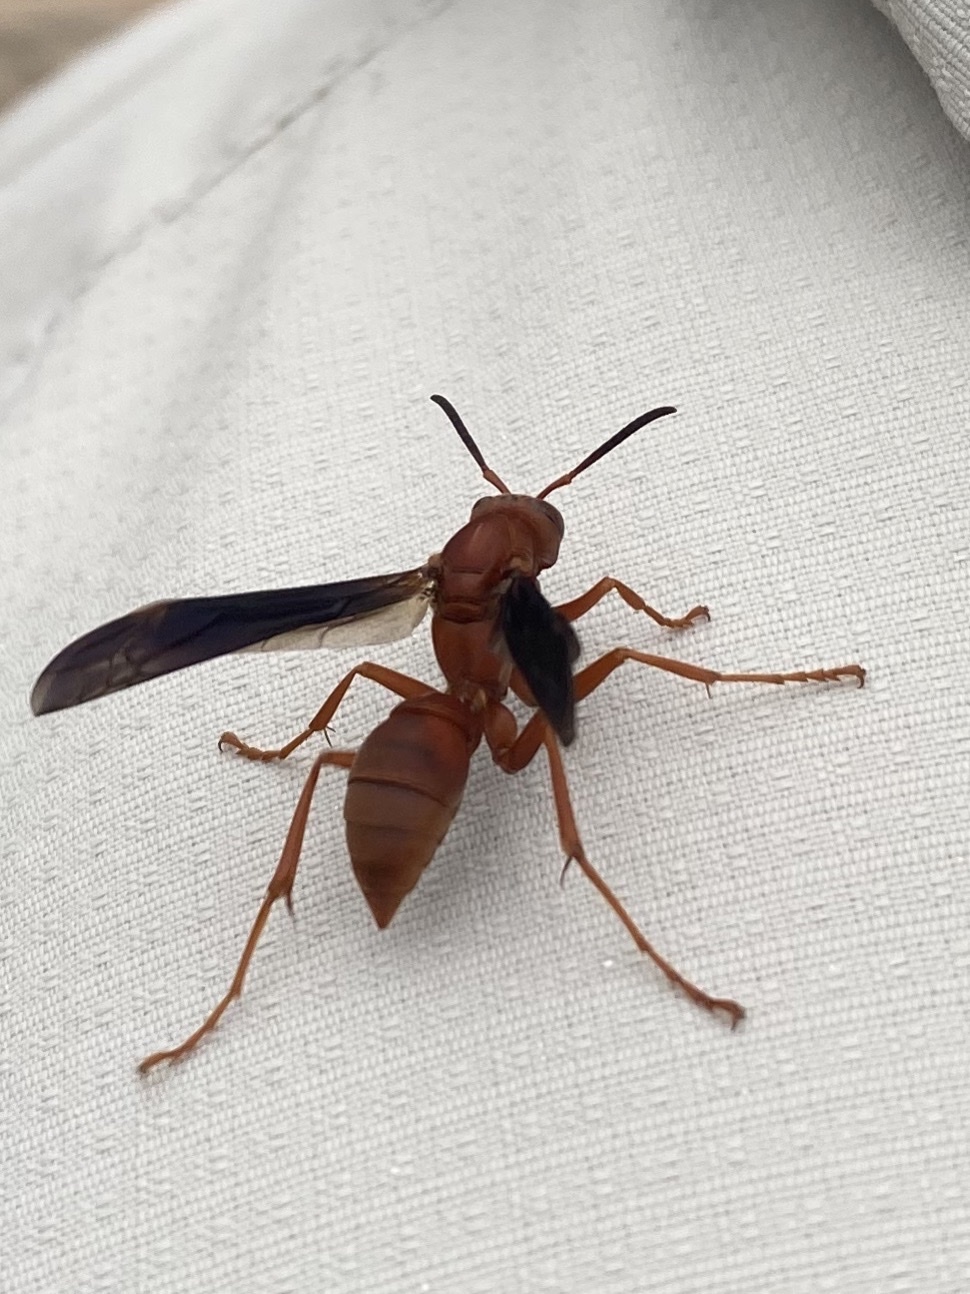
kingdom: Animalia
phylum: Arthropoda
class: Insecta
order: Hymenoptera
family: Eumenidae
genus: Polistes
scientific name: Polistes carolina
